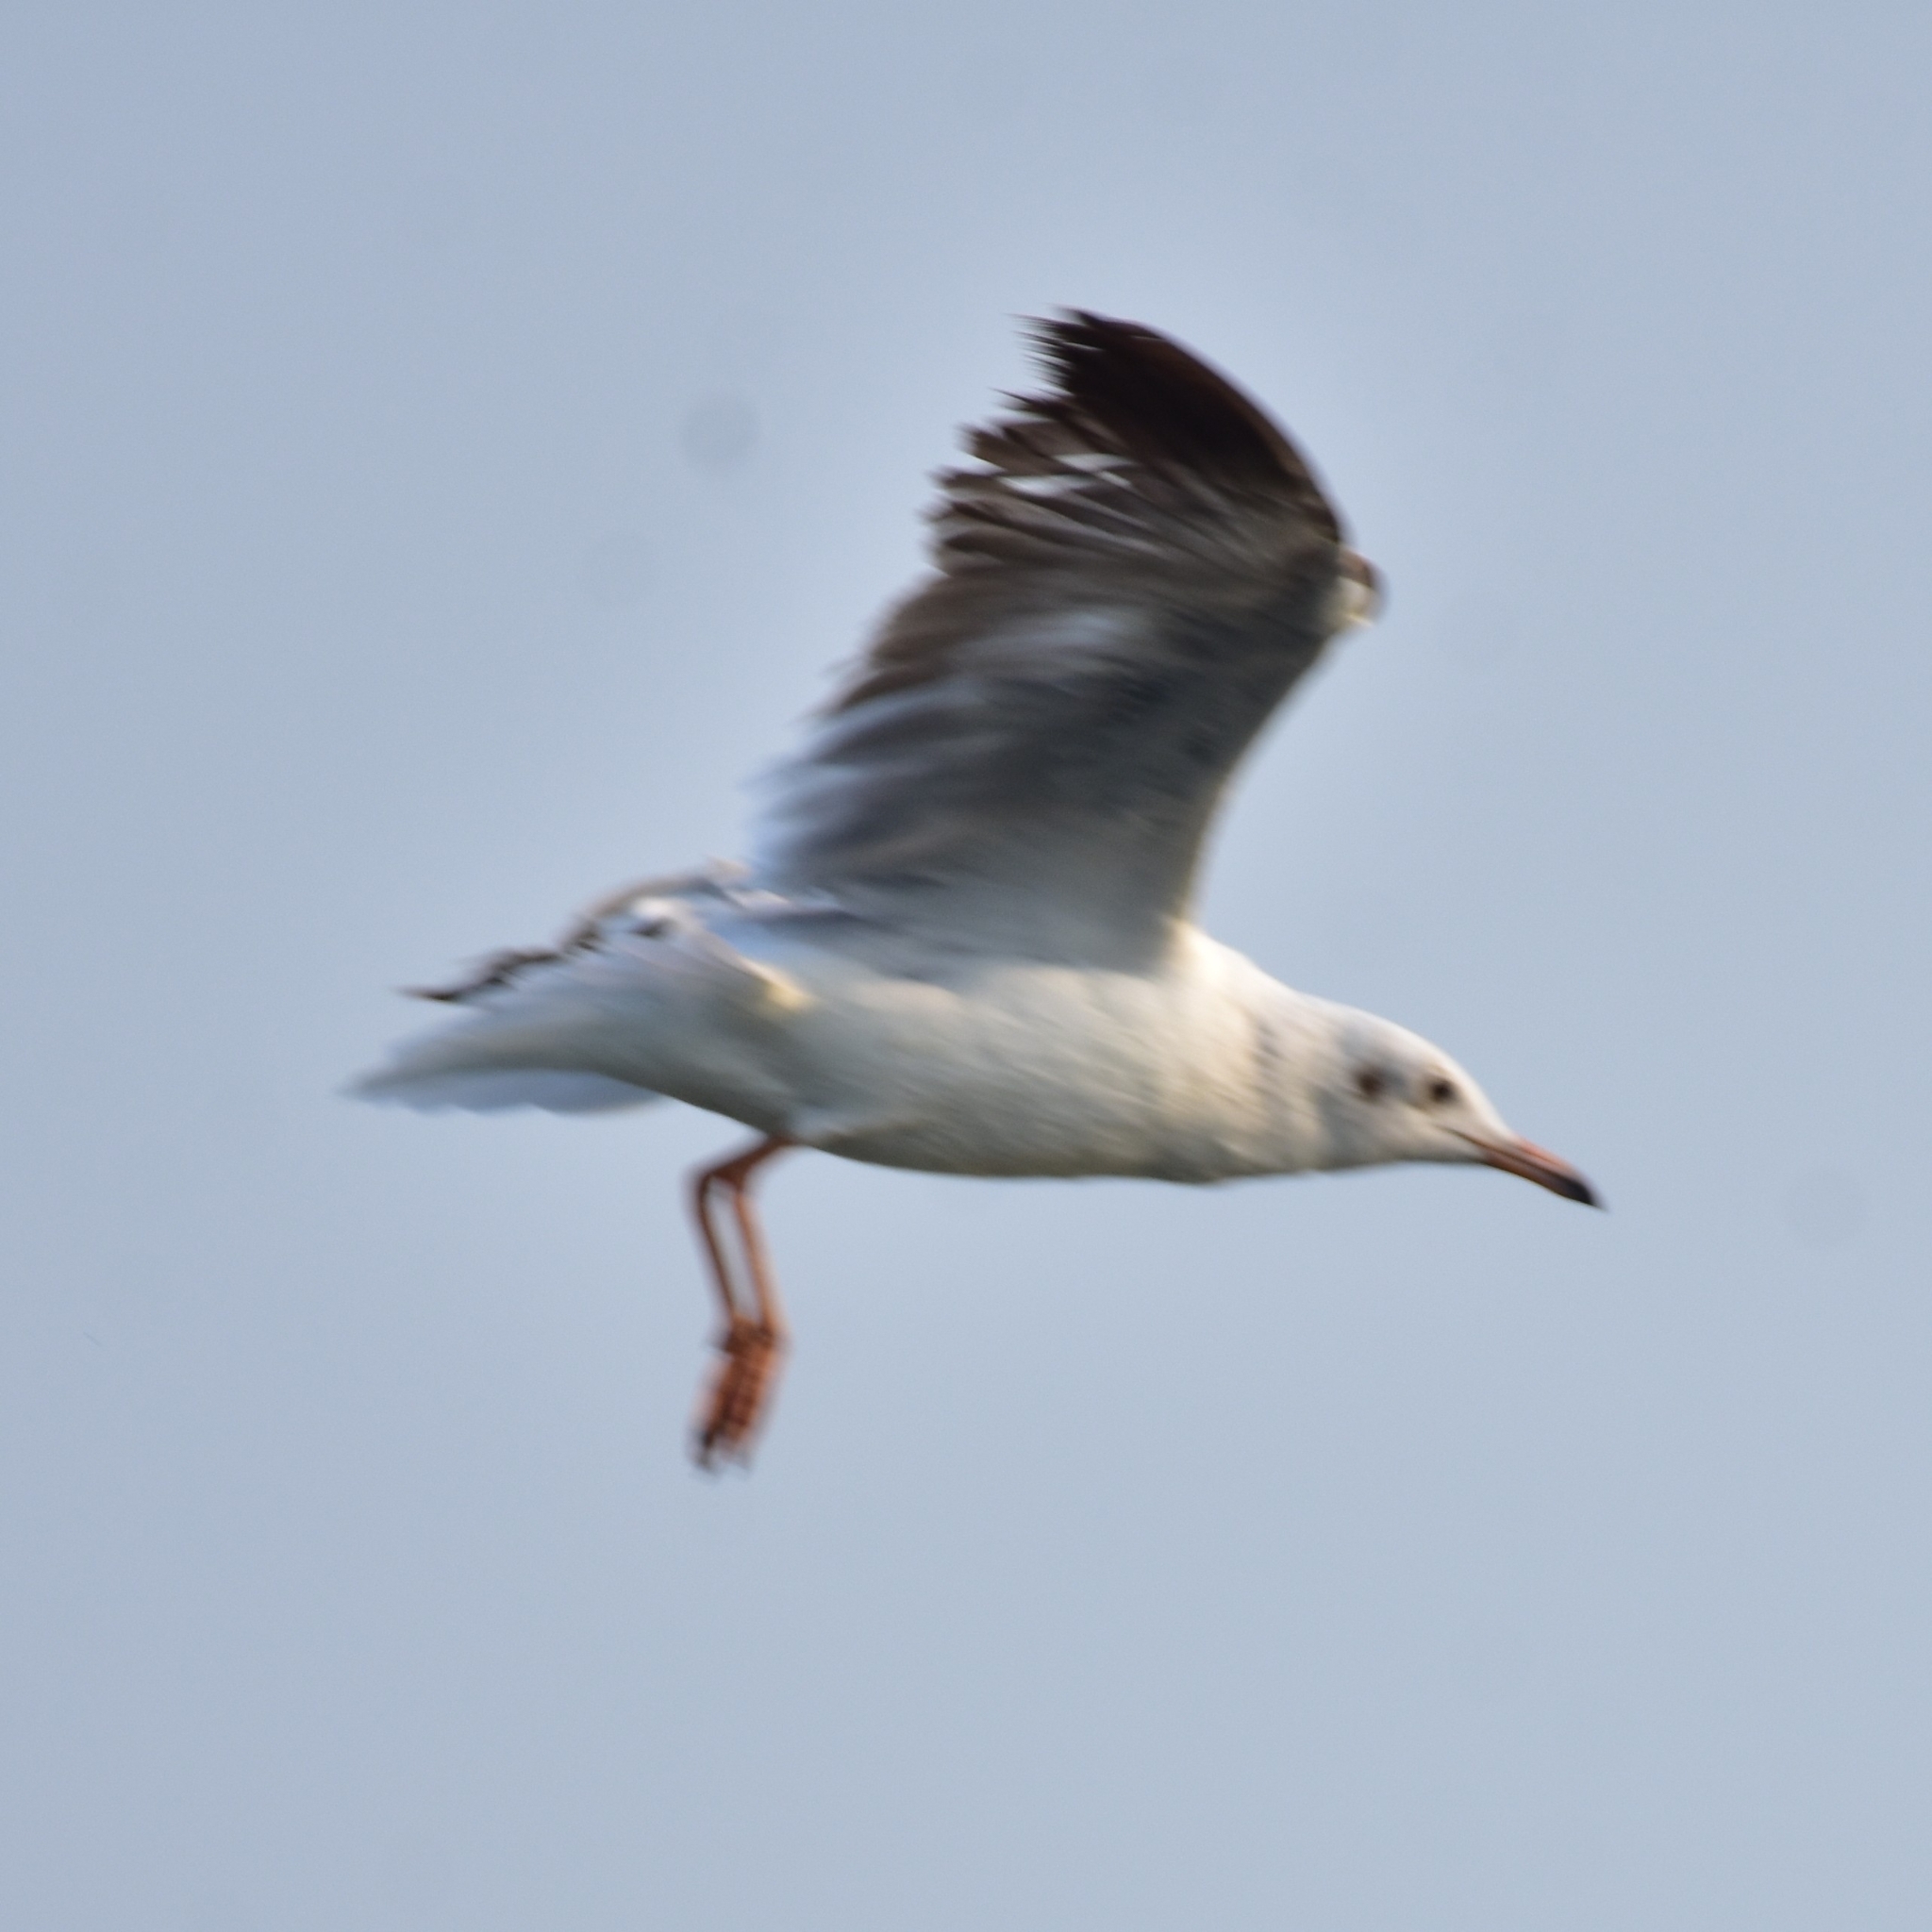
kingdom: Animalia
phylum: Chordata
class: Aves
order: Charadriiformes
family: Laridae
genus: Chroicocephalus
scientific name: Chroicocephalus brunnicephalus
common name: Brown-headed gull
